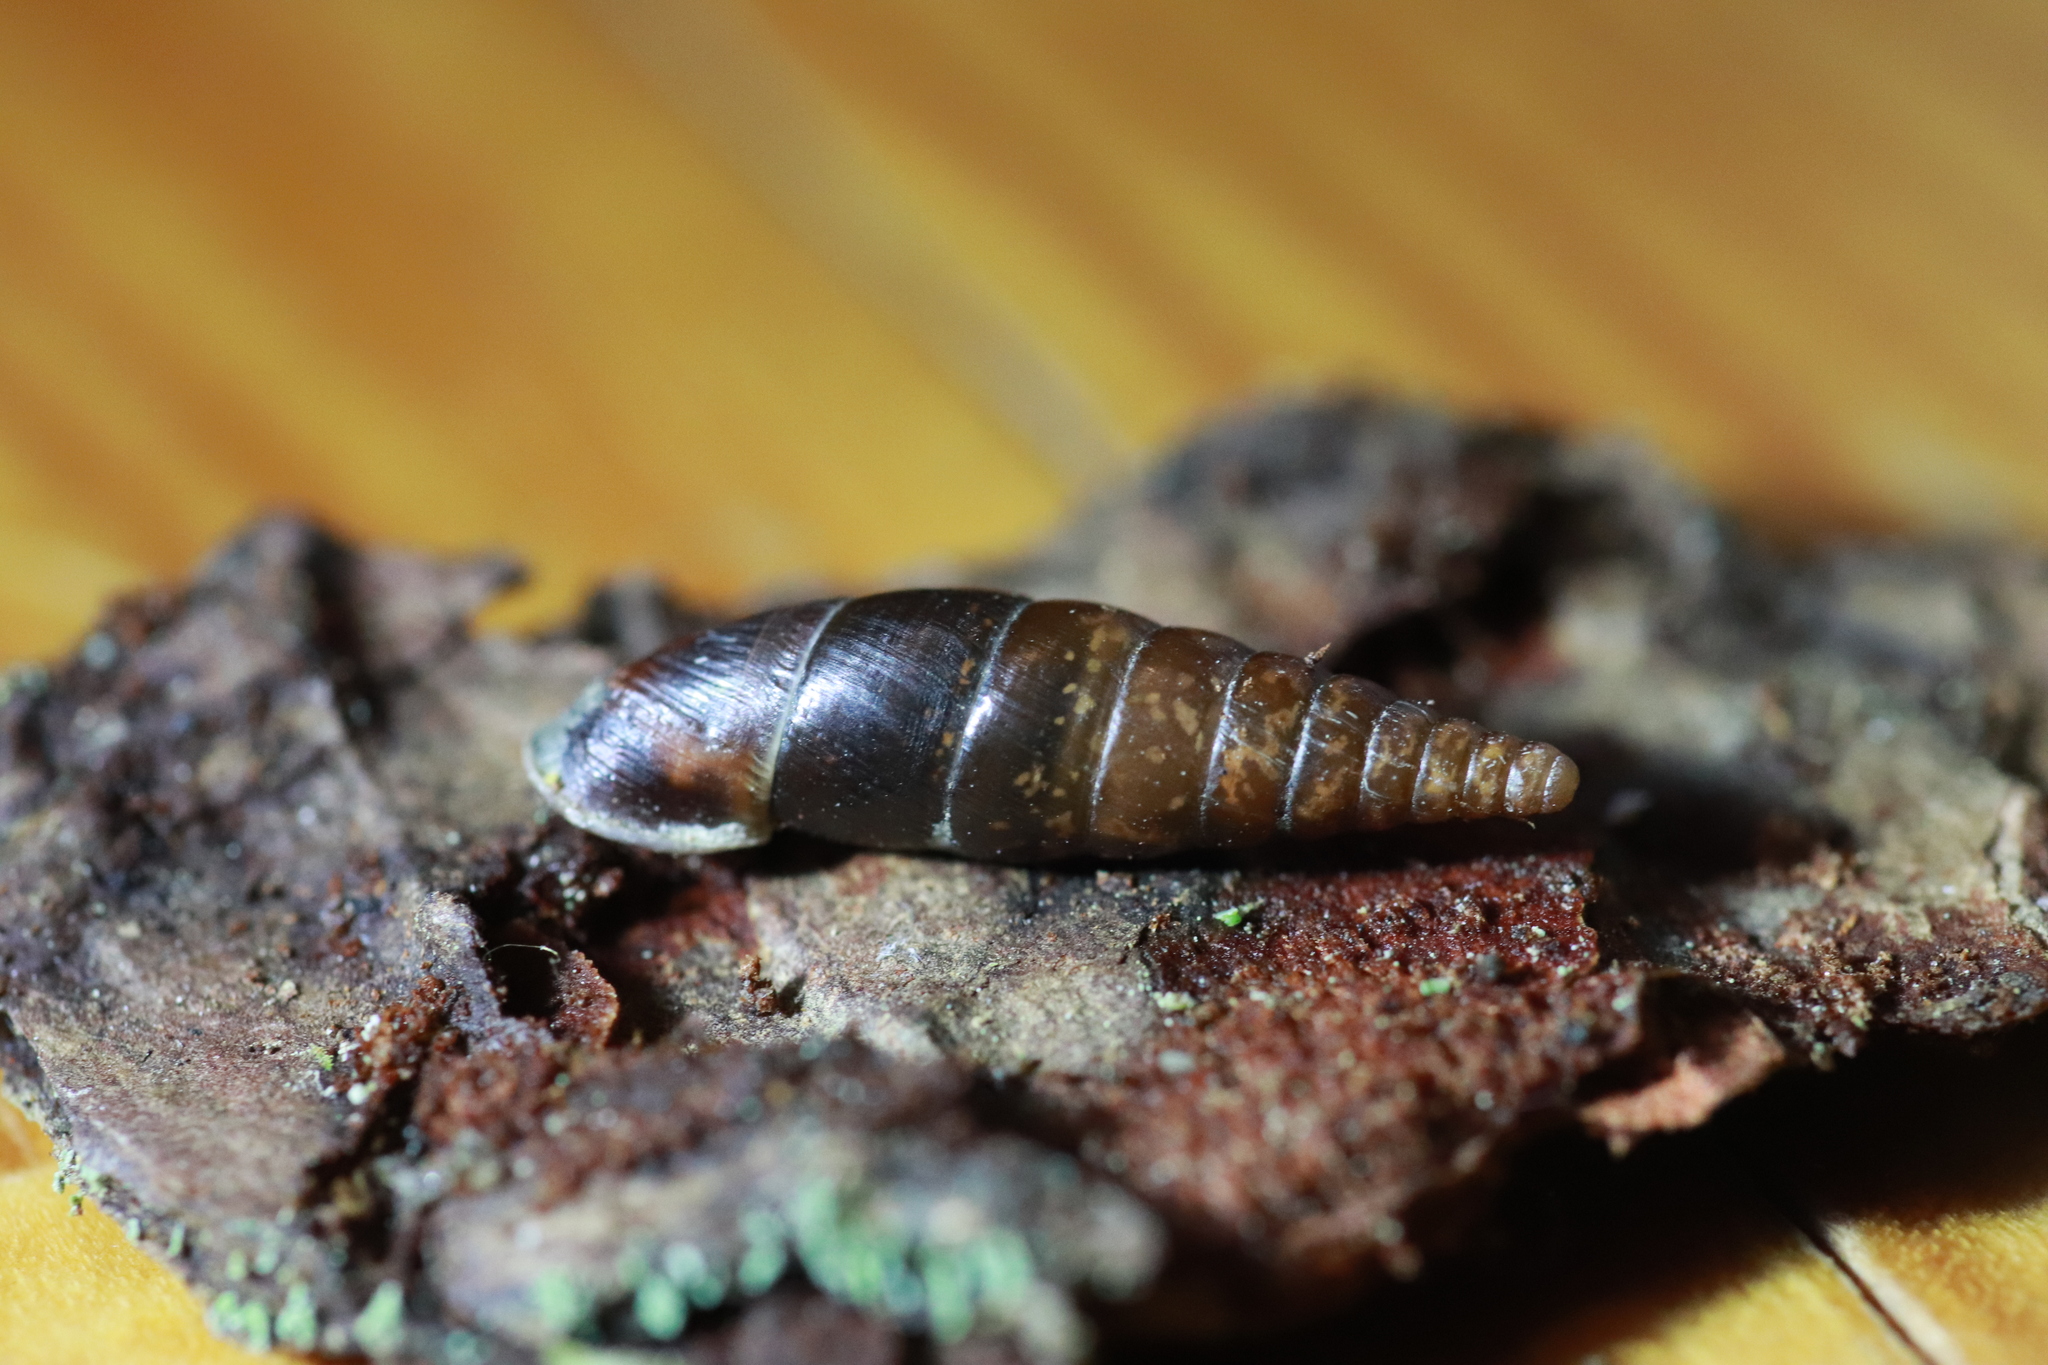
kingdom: Animalia
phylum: Mollusca
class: Gastropoda
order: Stylommatophora
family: Clausiliidae
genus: Cochlodina
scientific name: Cochlodina laminata
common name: Plaited door snail
